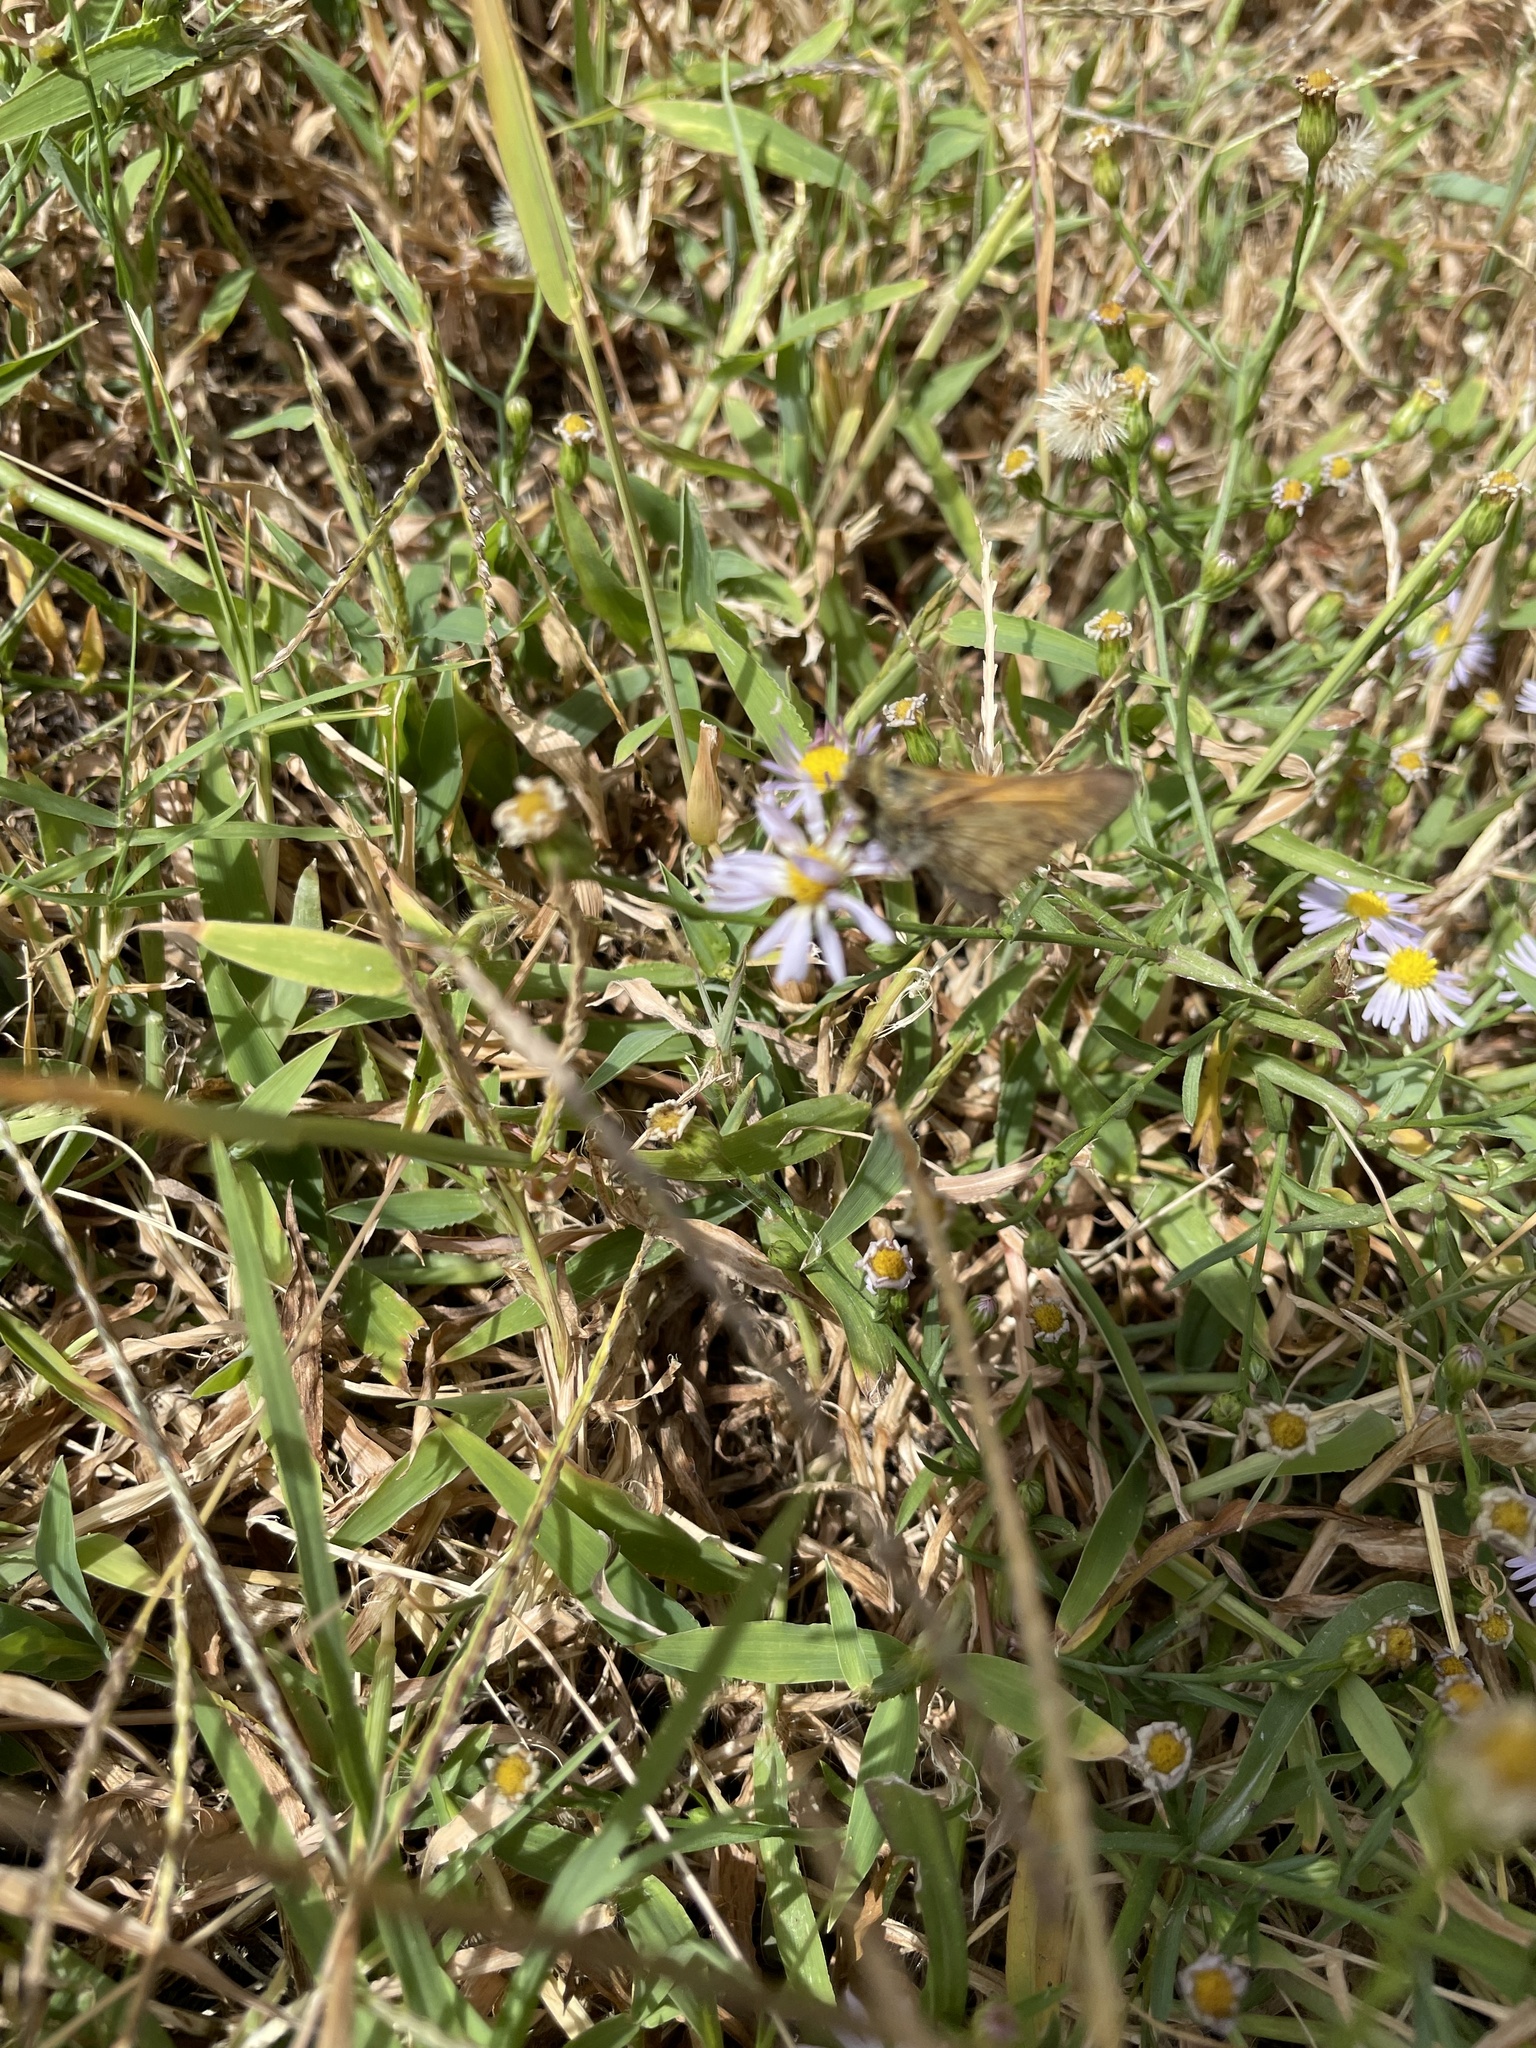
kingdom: Animalia
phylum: Arthropoda
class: Insecta
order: Lepidoptera
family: Hesperiidae
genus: Atalopedes
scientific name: Atalopedes
